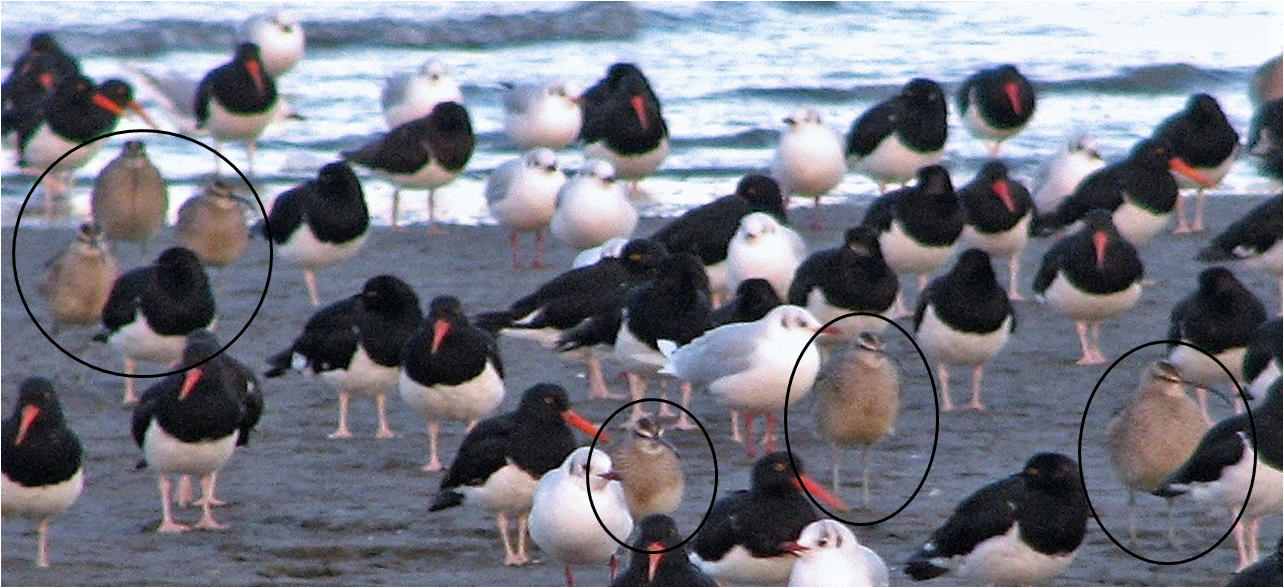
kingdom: Animalia
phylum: Chordata
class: Aves
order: Charadriiformes
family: Scolopacidae
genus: Numenius
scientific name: Numenius phaeopus
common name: Whimbrel
